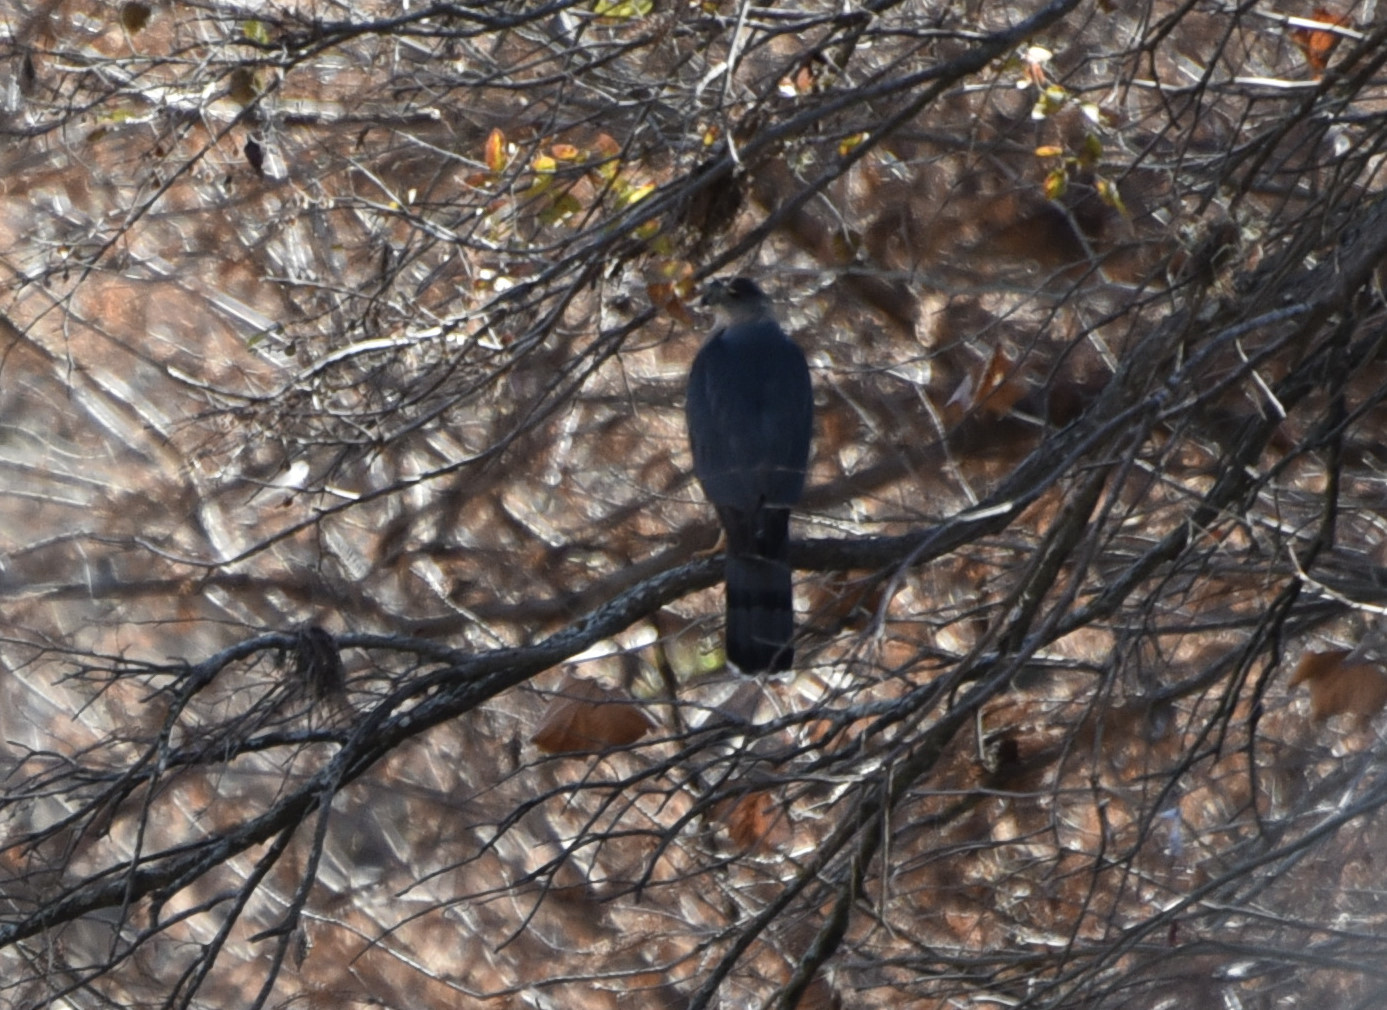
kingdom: Animalia
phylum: Chordata
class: Aves
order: Accipitriformes
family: Accipitridae
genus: Accipiter
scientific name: Accipiter cooperii
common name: Cooper's hawk
